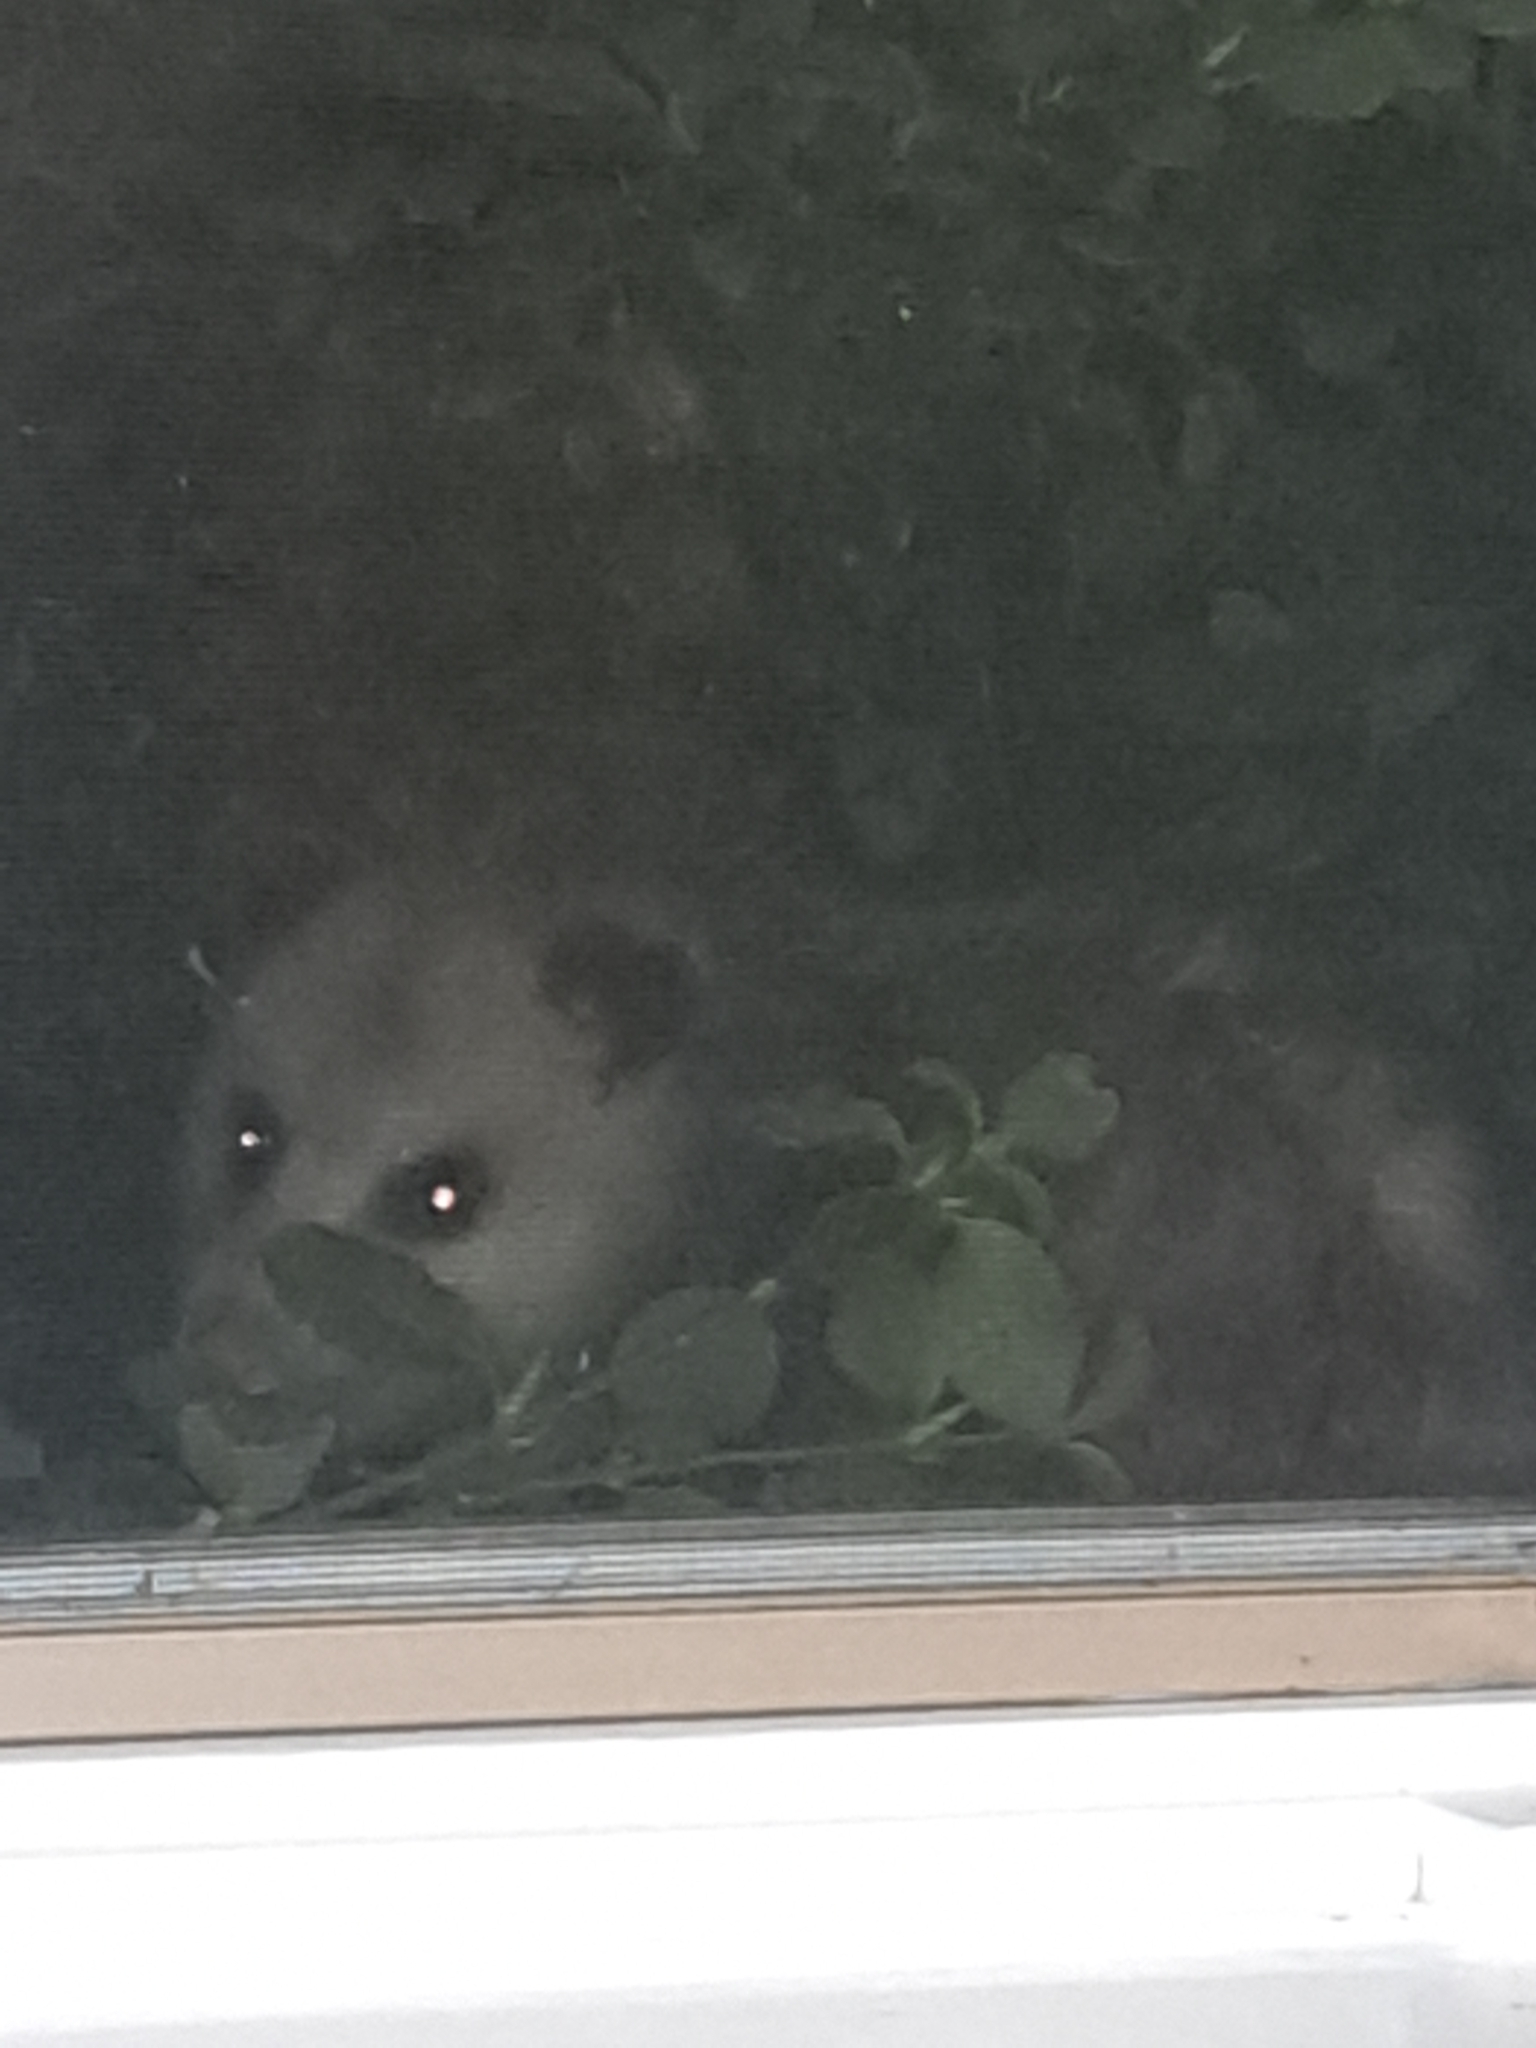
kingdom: Animalia
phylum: Chordata
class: Mammalia
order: Didelphimorphia
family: Didelphidae
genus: Didelphis
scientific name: Didelphis virginiana
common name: Virginia opossum
